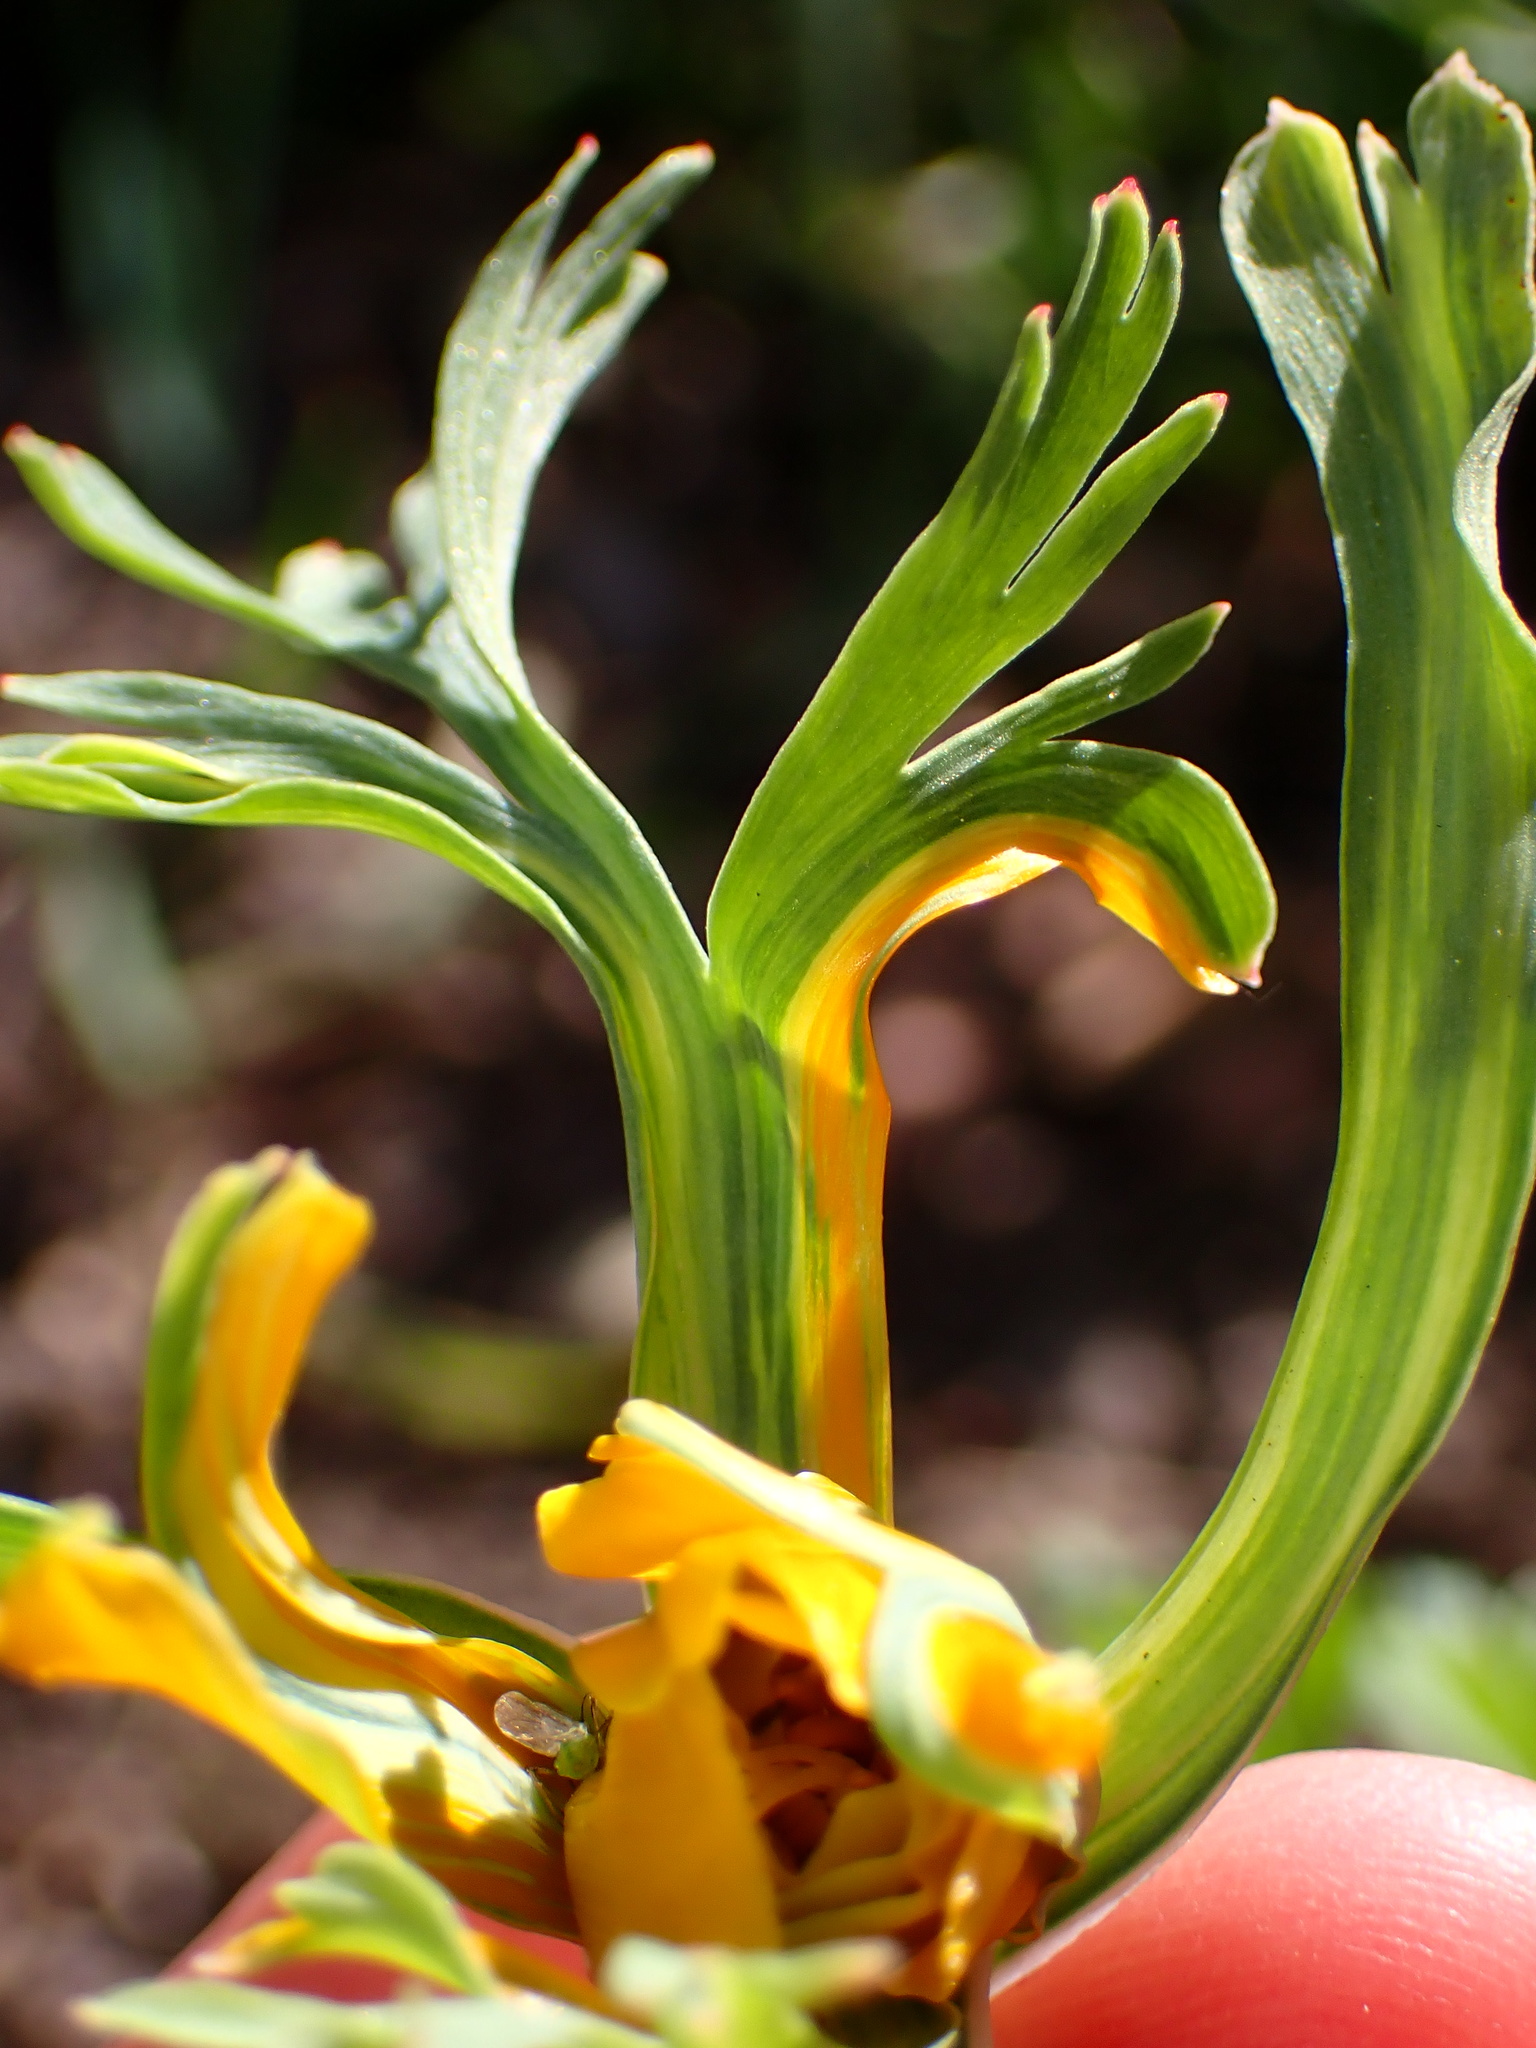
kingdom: Plantae
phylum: Tracheophyta
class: Magnoliopsida
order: Ranunculales
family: Papaveraceae
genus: Eschscholzia
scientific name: Eschscholzia californica
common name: California poppy
